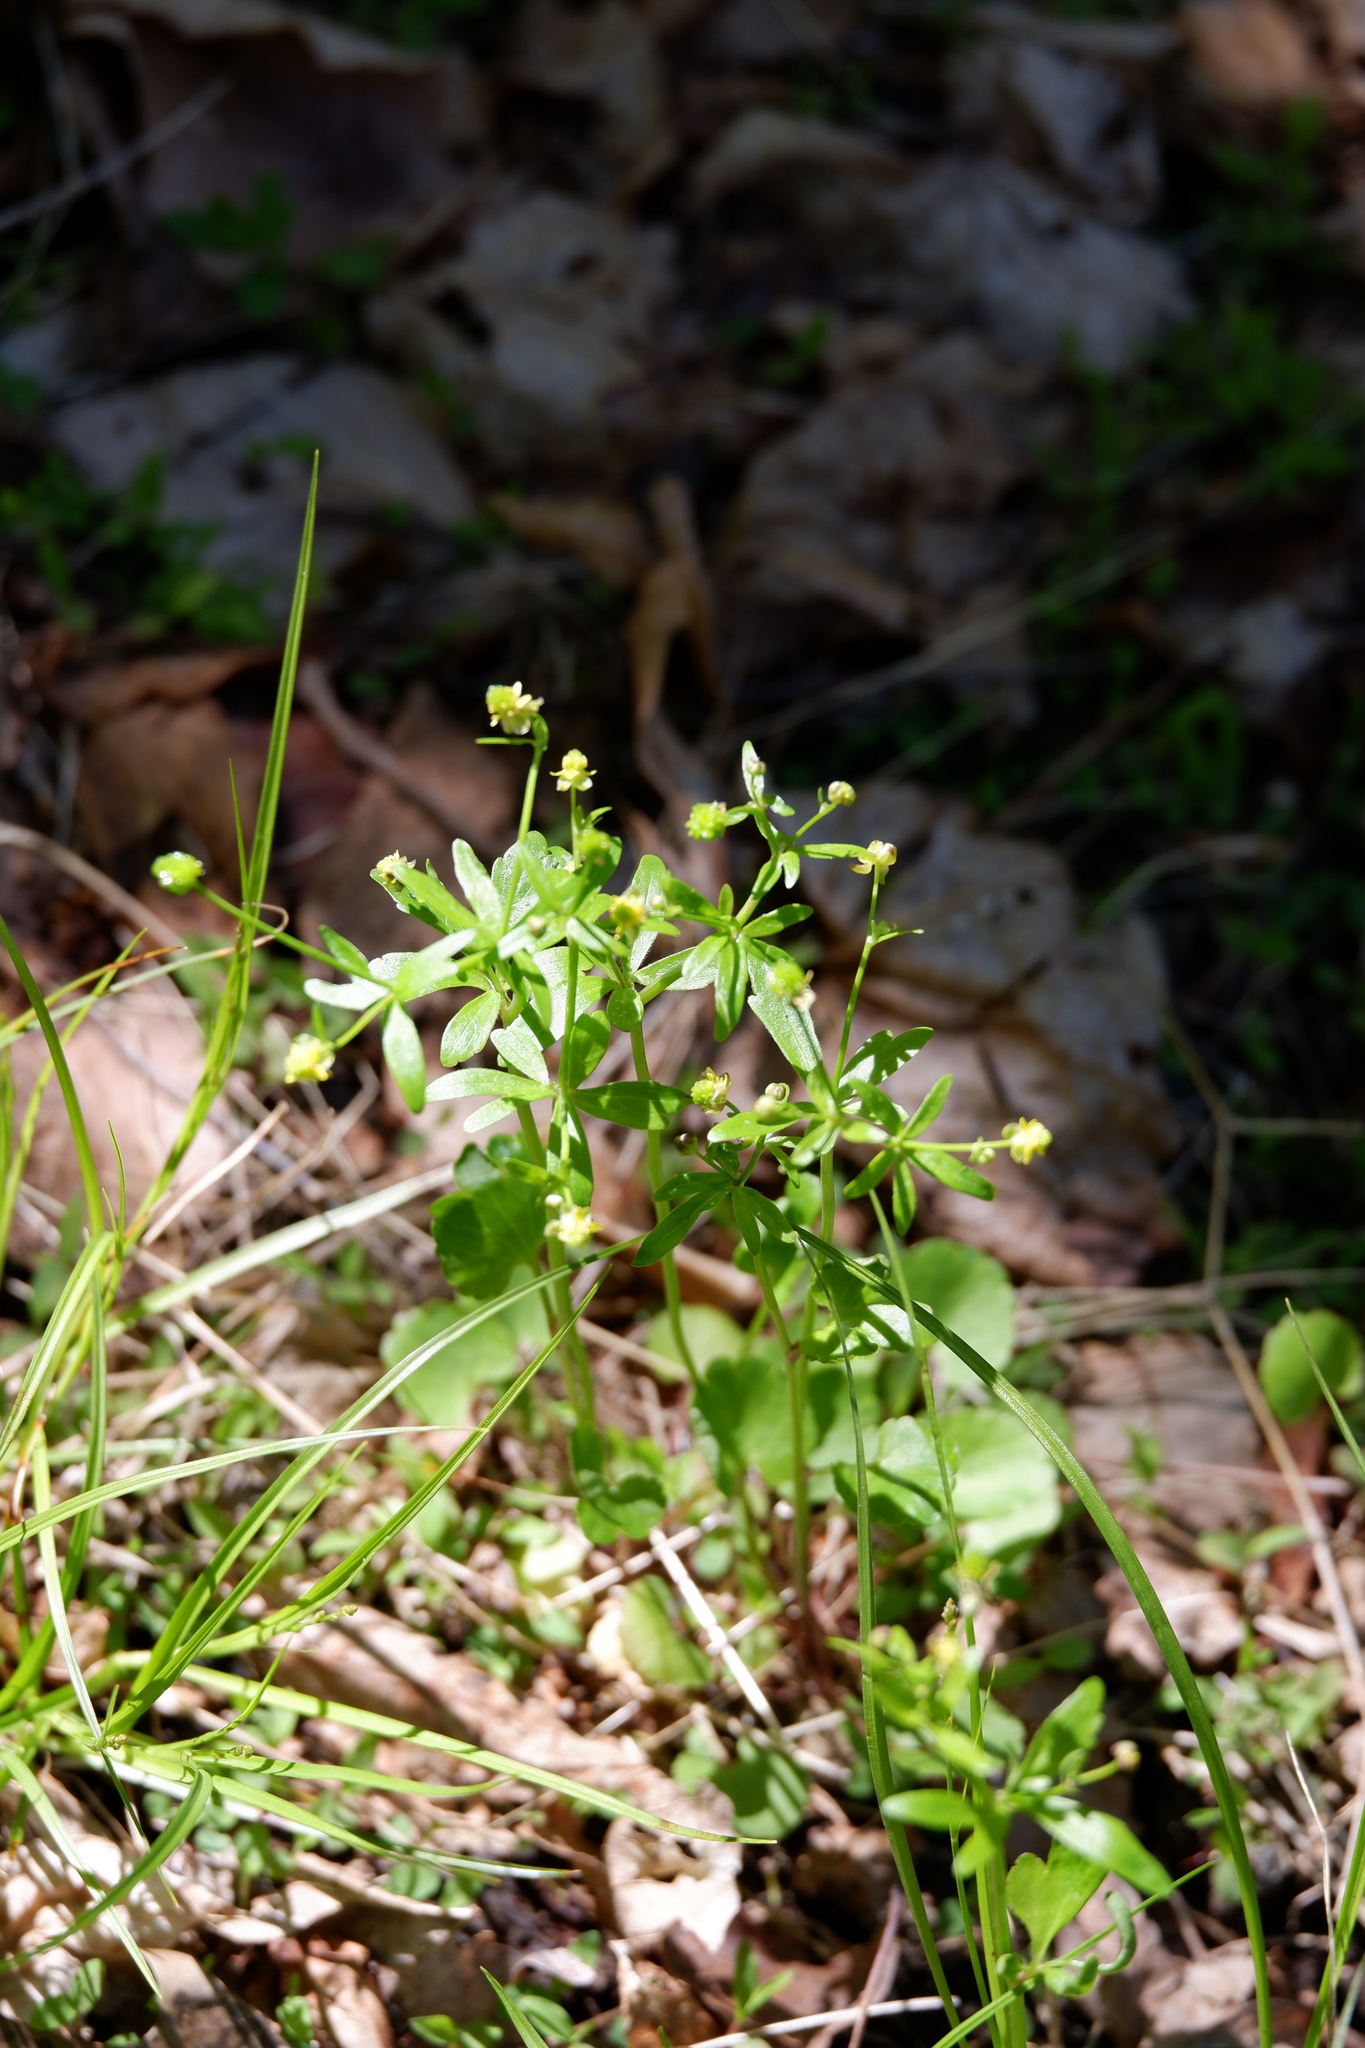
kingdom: Plantae
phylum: Tracheophyta
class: Magnoliopsida
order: Ranunculales
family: Ranunculaceae
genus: Ranunculus
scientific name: Ranunculus abortivus
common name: Early wood buttercup
